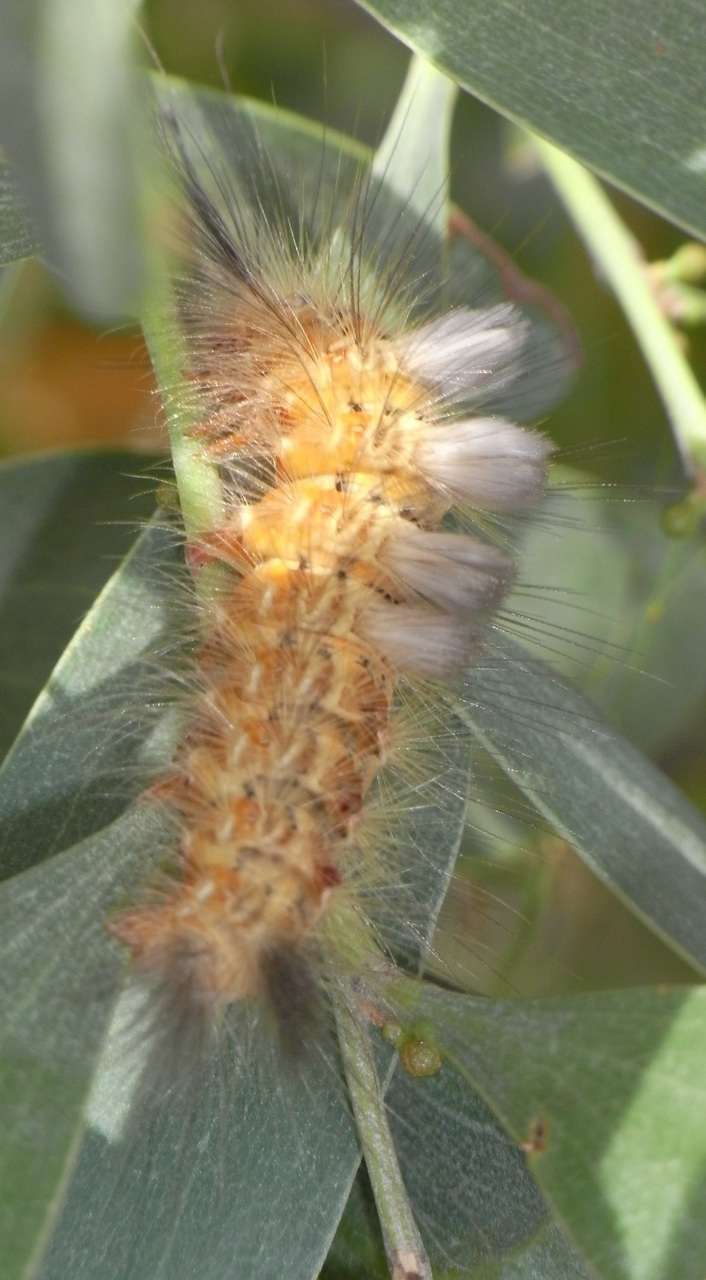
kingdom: Animalia
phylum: Arthropoda
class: Insecta
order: Lepidoptera
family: Erebidae
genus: Orgyia
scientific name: Orgyia
